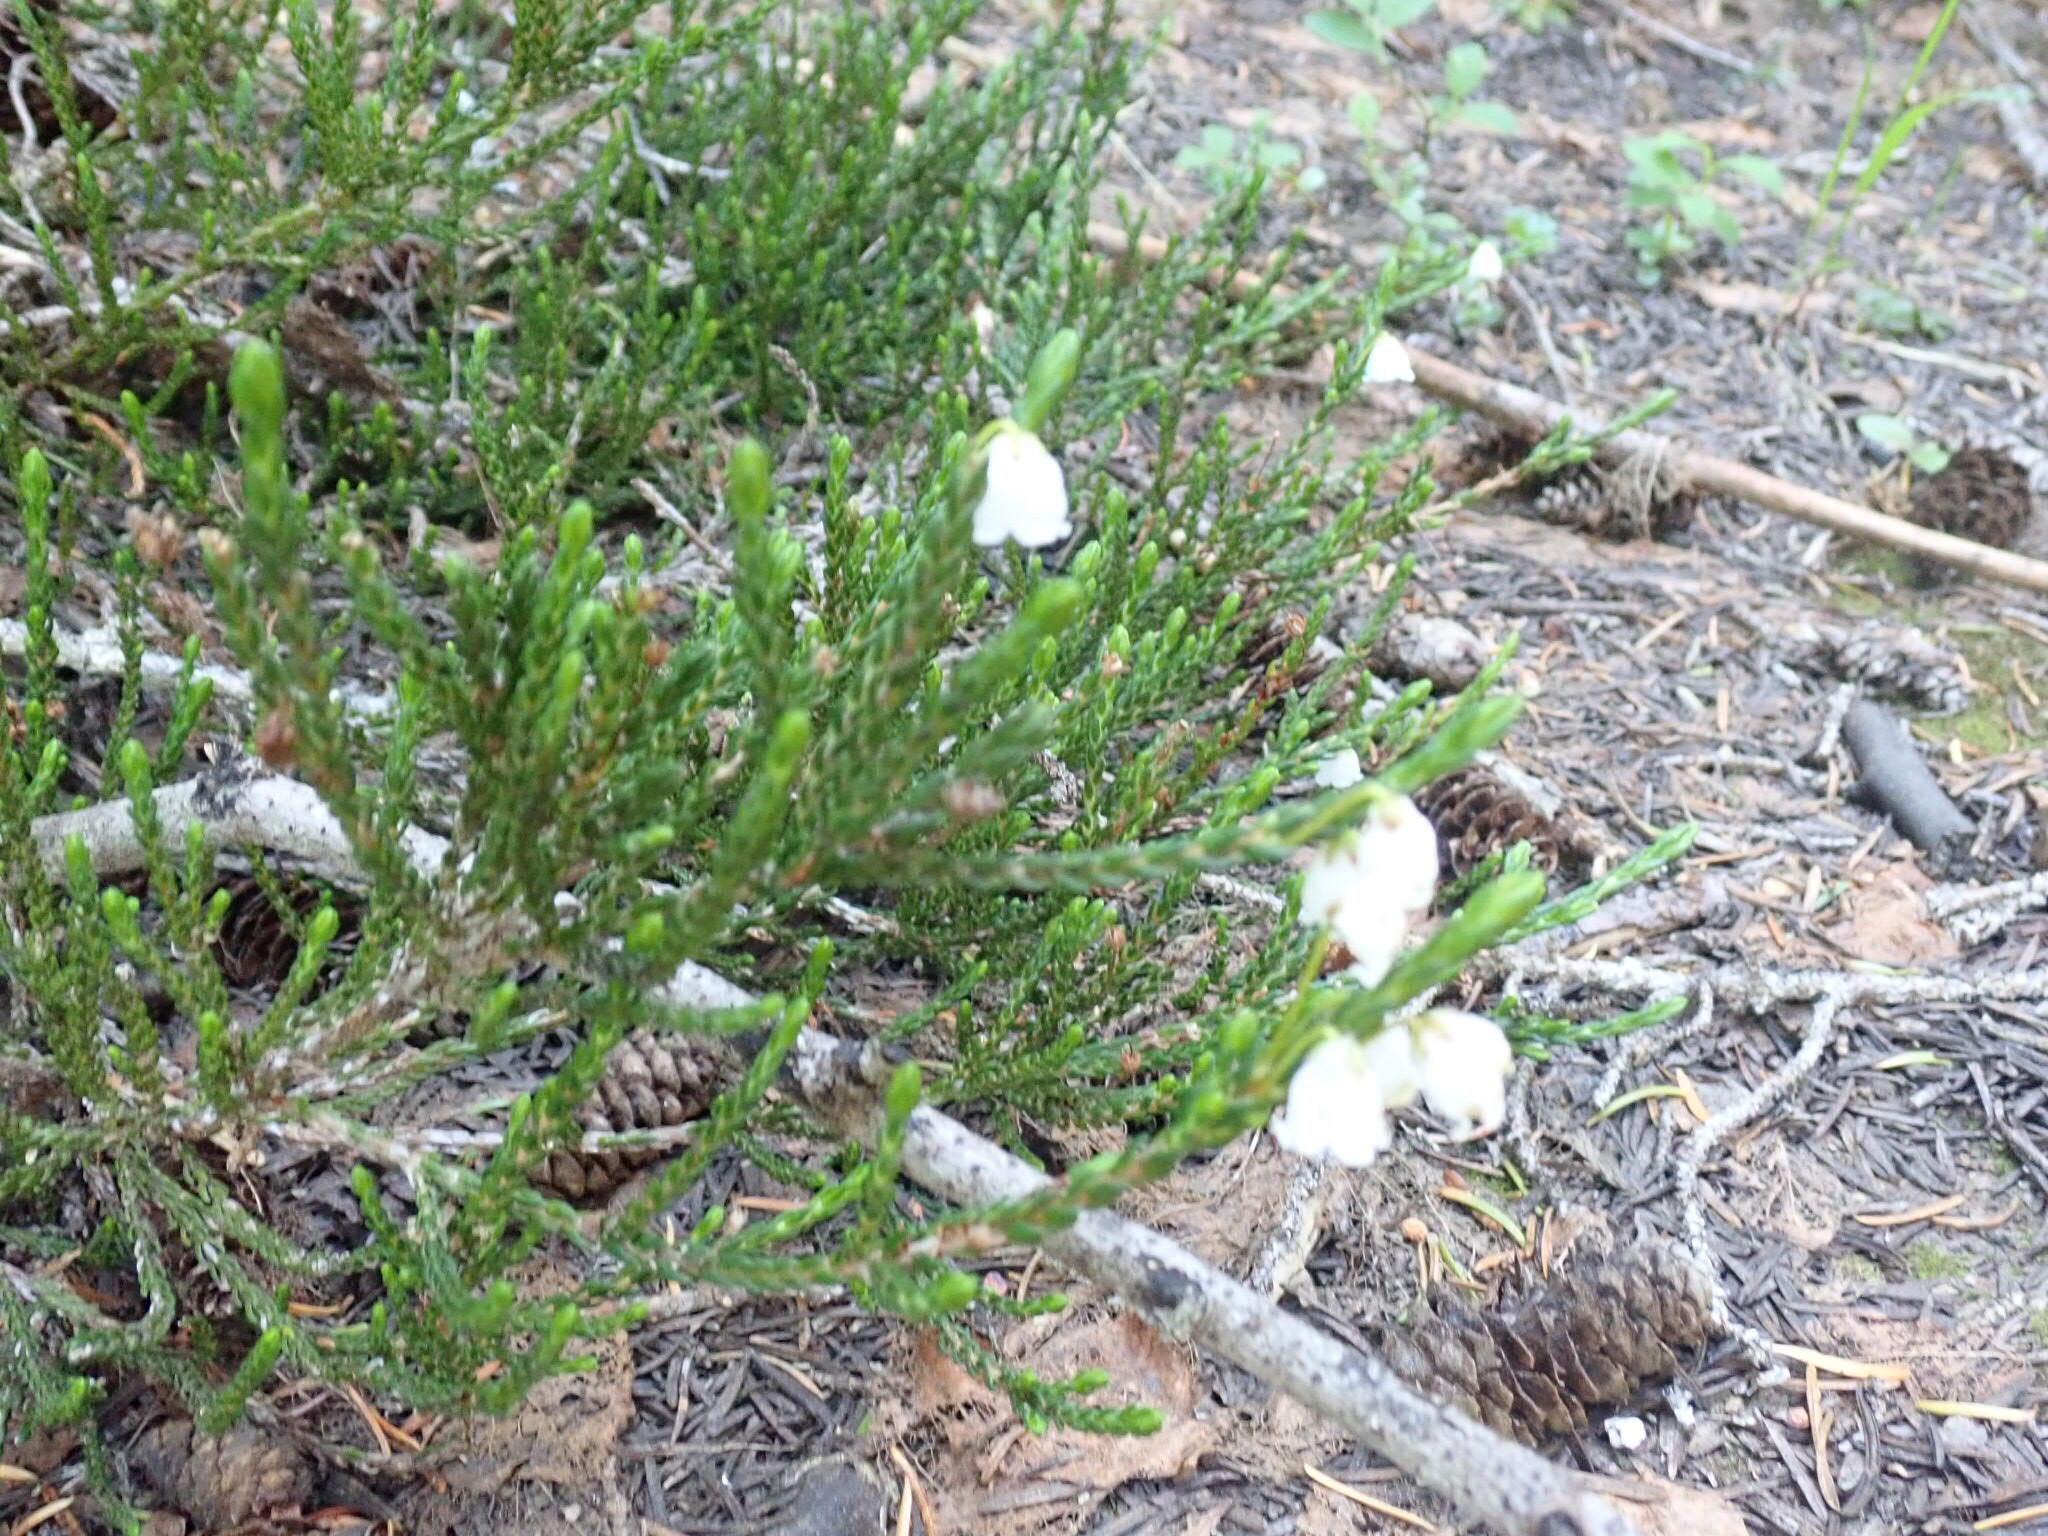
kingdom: Plantae
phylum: Tracheophyta
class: Magnoliopsida
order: Ericales
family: Ericaceae
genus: Cassiope
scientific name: Cassiope mertensiana
